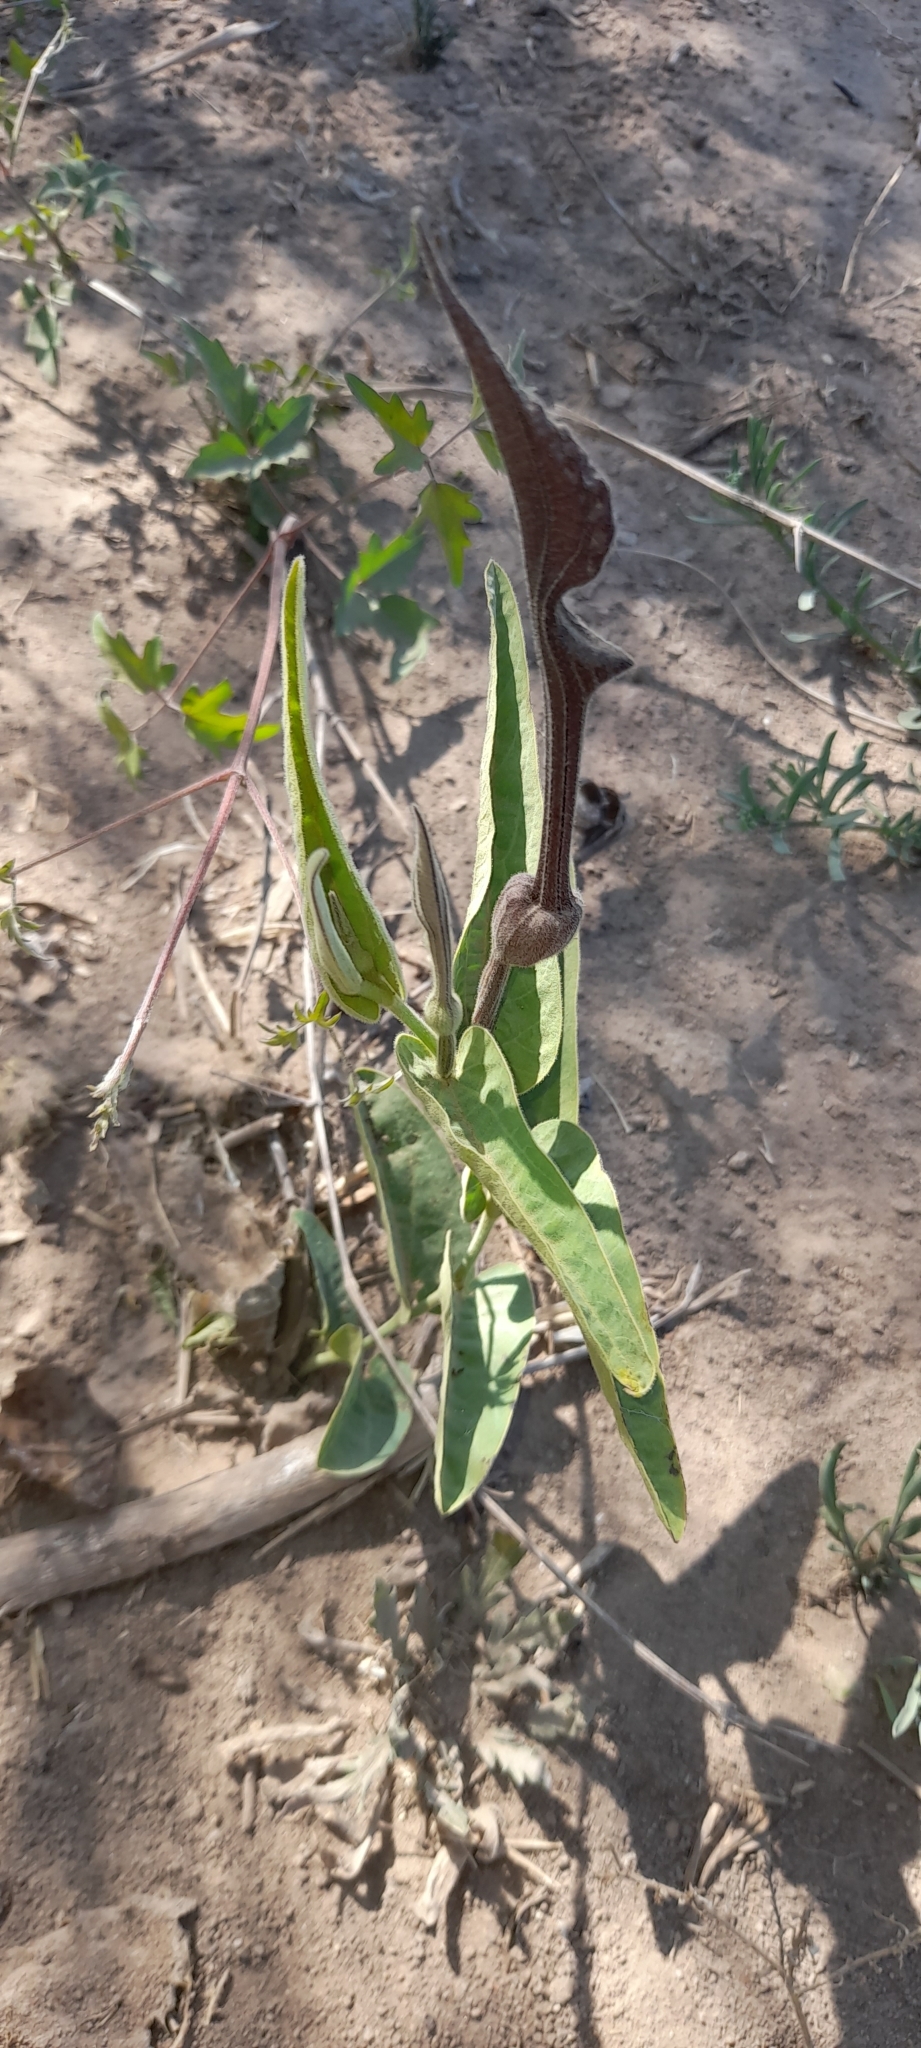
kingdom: Plantae
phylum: Tracheophyta
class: Magnoliopsida
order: Piperales
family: Aristolochiaceae
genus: Aristolochia
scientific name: Aristolochia ceresensis
